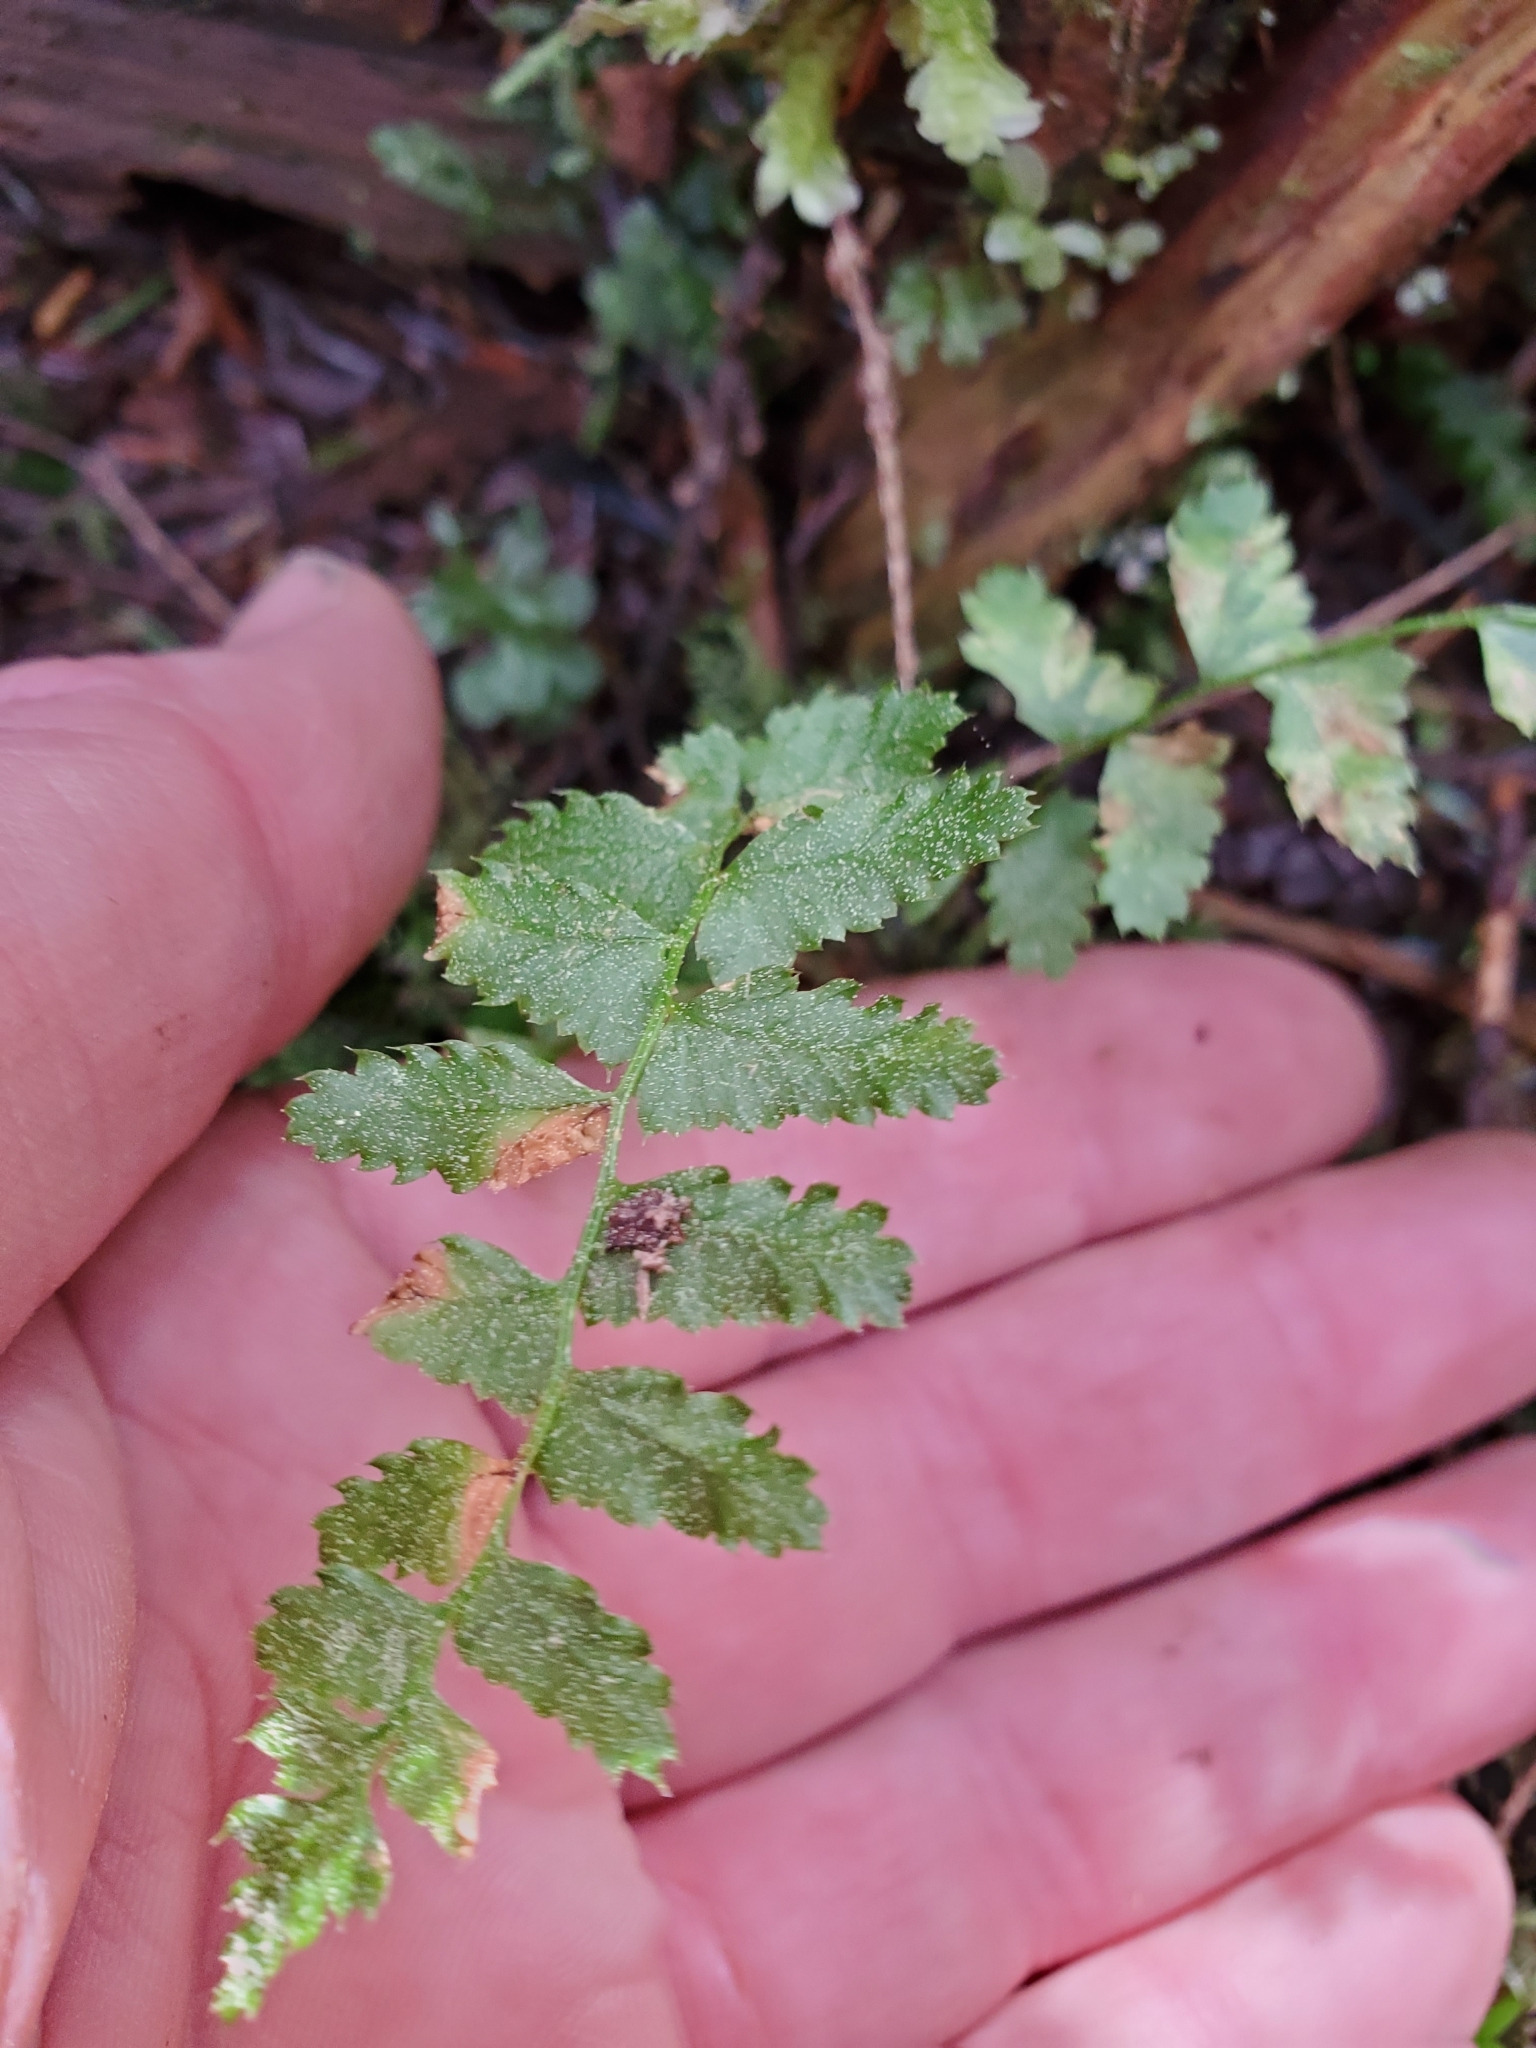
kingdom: Plantae
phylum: Tracheophyta
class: Polypodiopsida
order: Polypodiales
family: Dryopteridaceae
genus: Polystichum
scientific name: Polystichum munitum
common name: Western sword-fern
